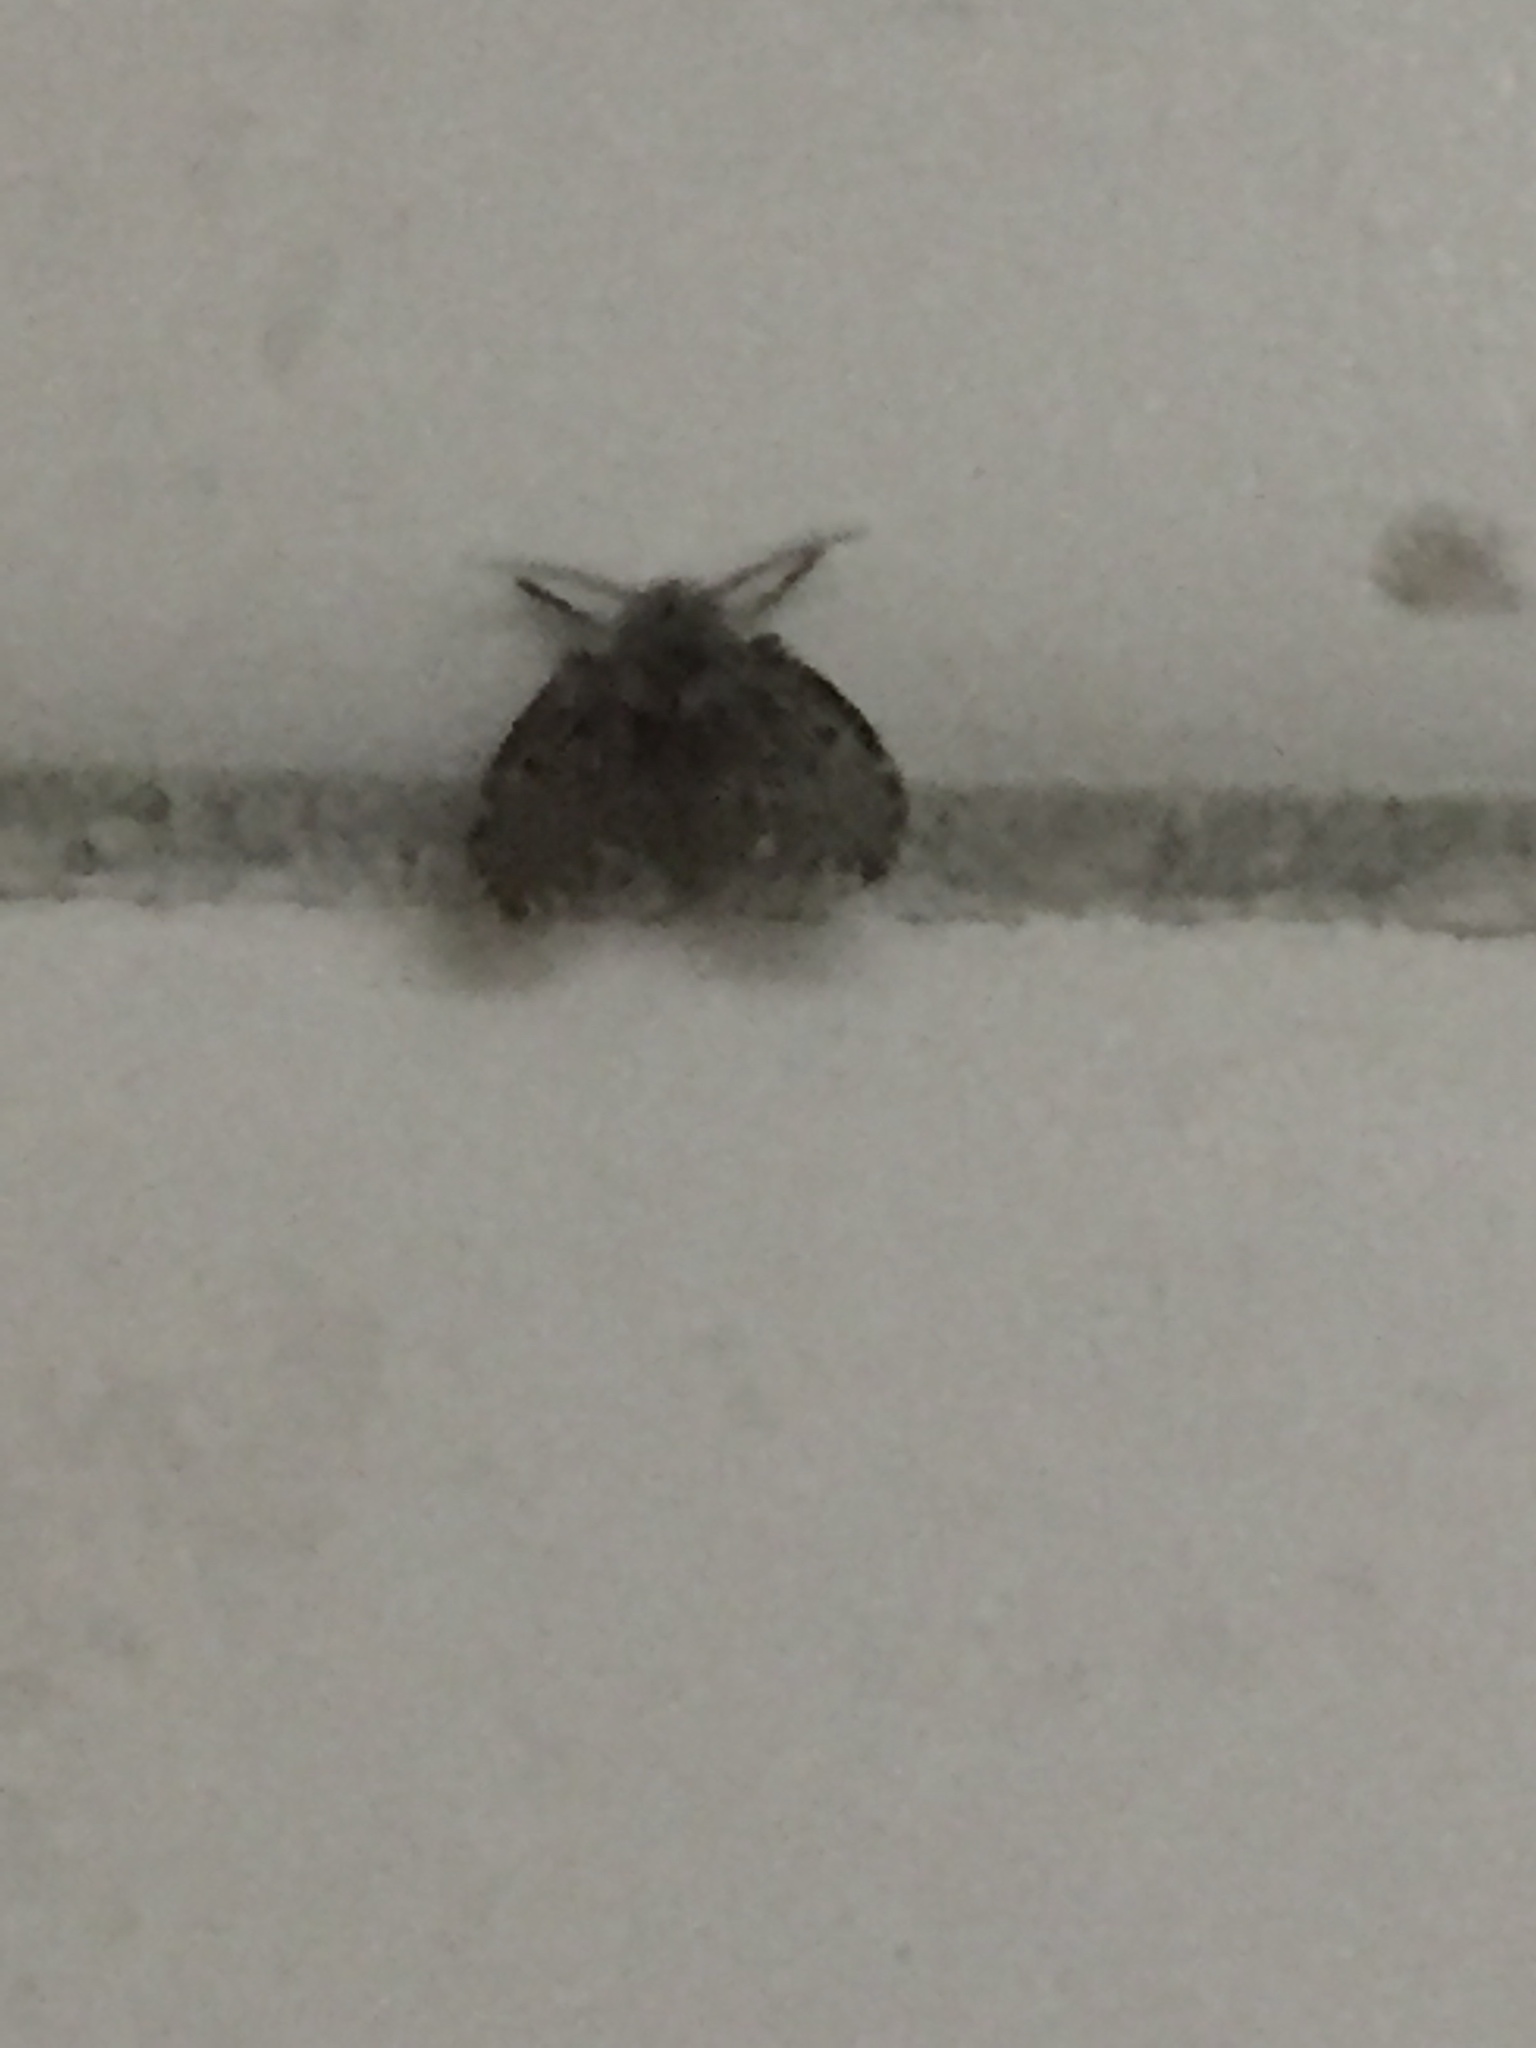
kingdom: Animalia
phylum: Arthropoda
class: Insecta
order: Diptera
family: Psychodidae
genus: Clogmia
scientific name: Clogmia albipunctatus
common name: White-spotted moth fly
